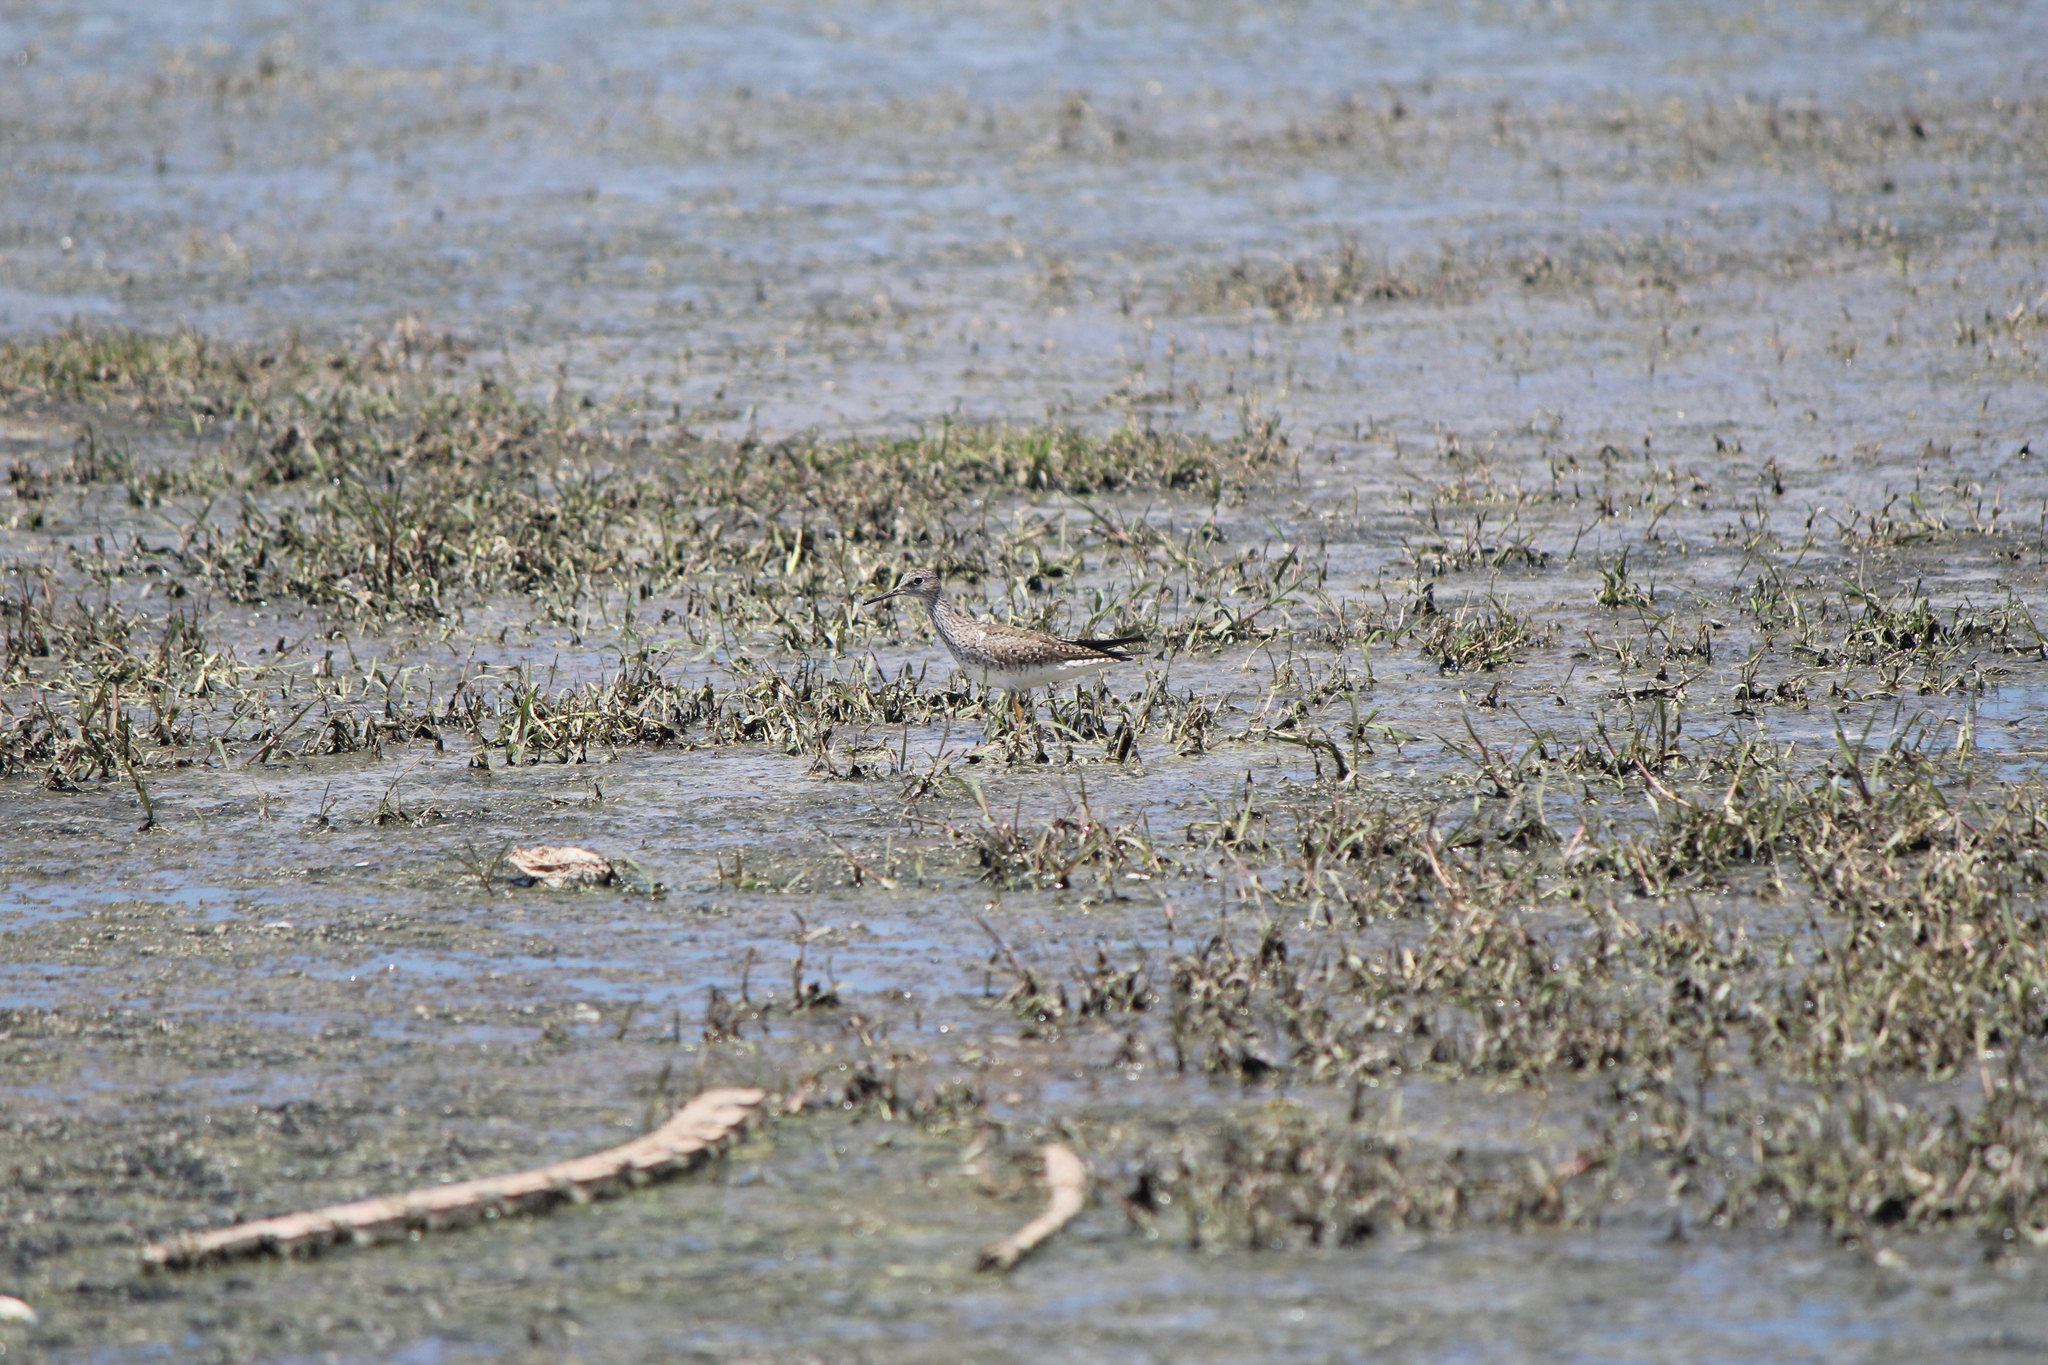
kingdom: Animalia
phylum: Chordata
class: Aves
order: Charadriiformes
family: Scolopacidae
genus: Tringa
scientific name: Tringa flavipes
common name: Lesser yellowlegs
